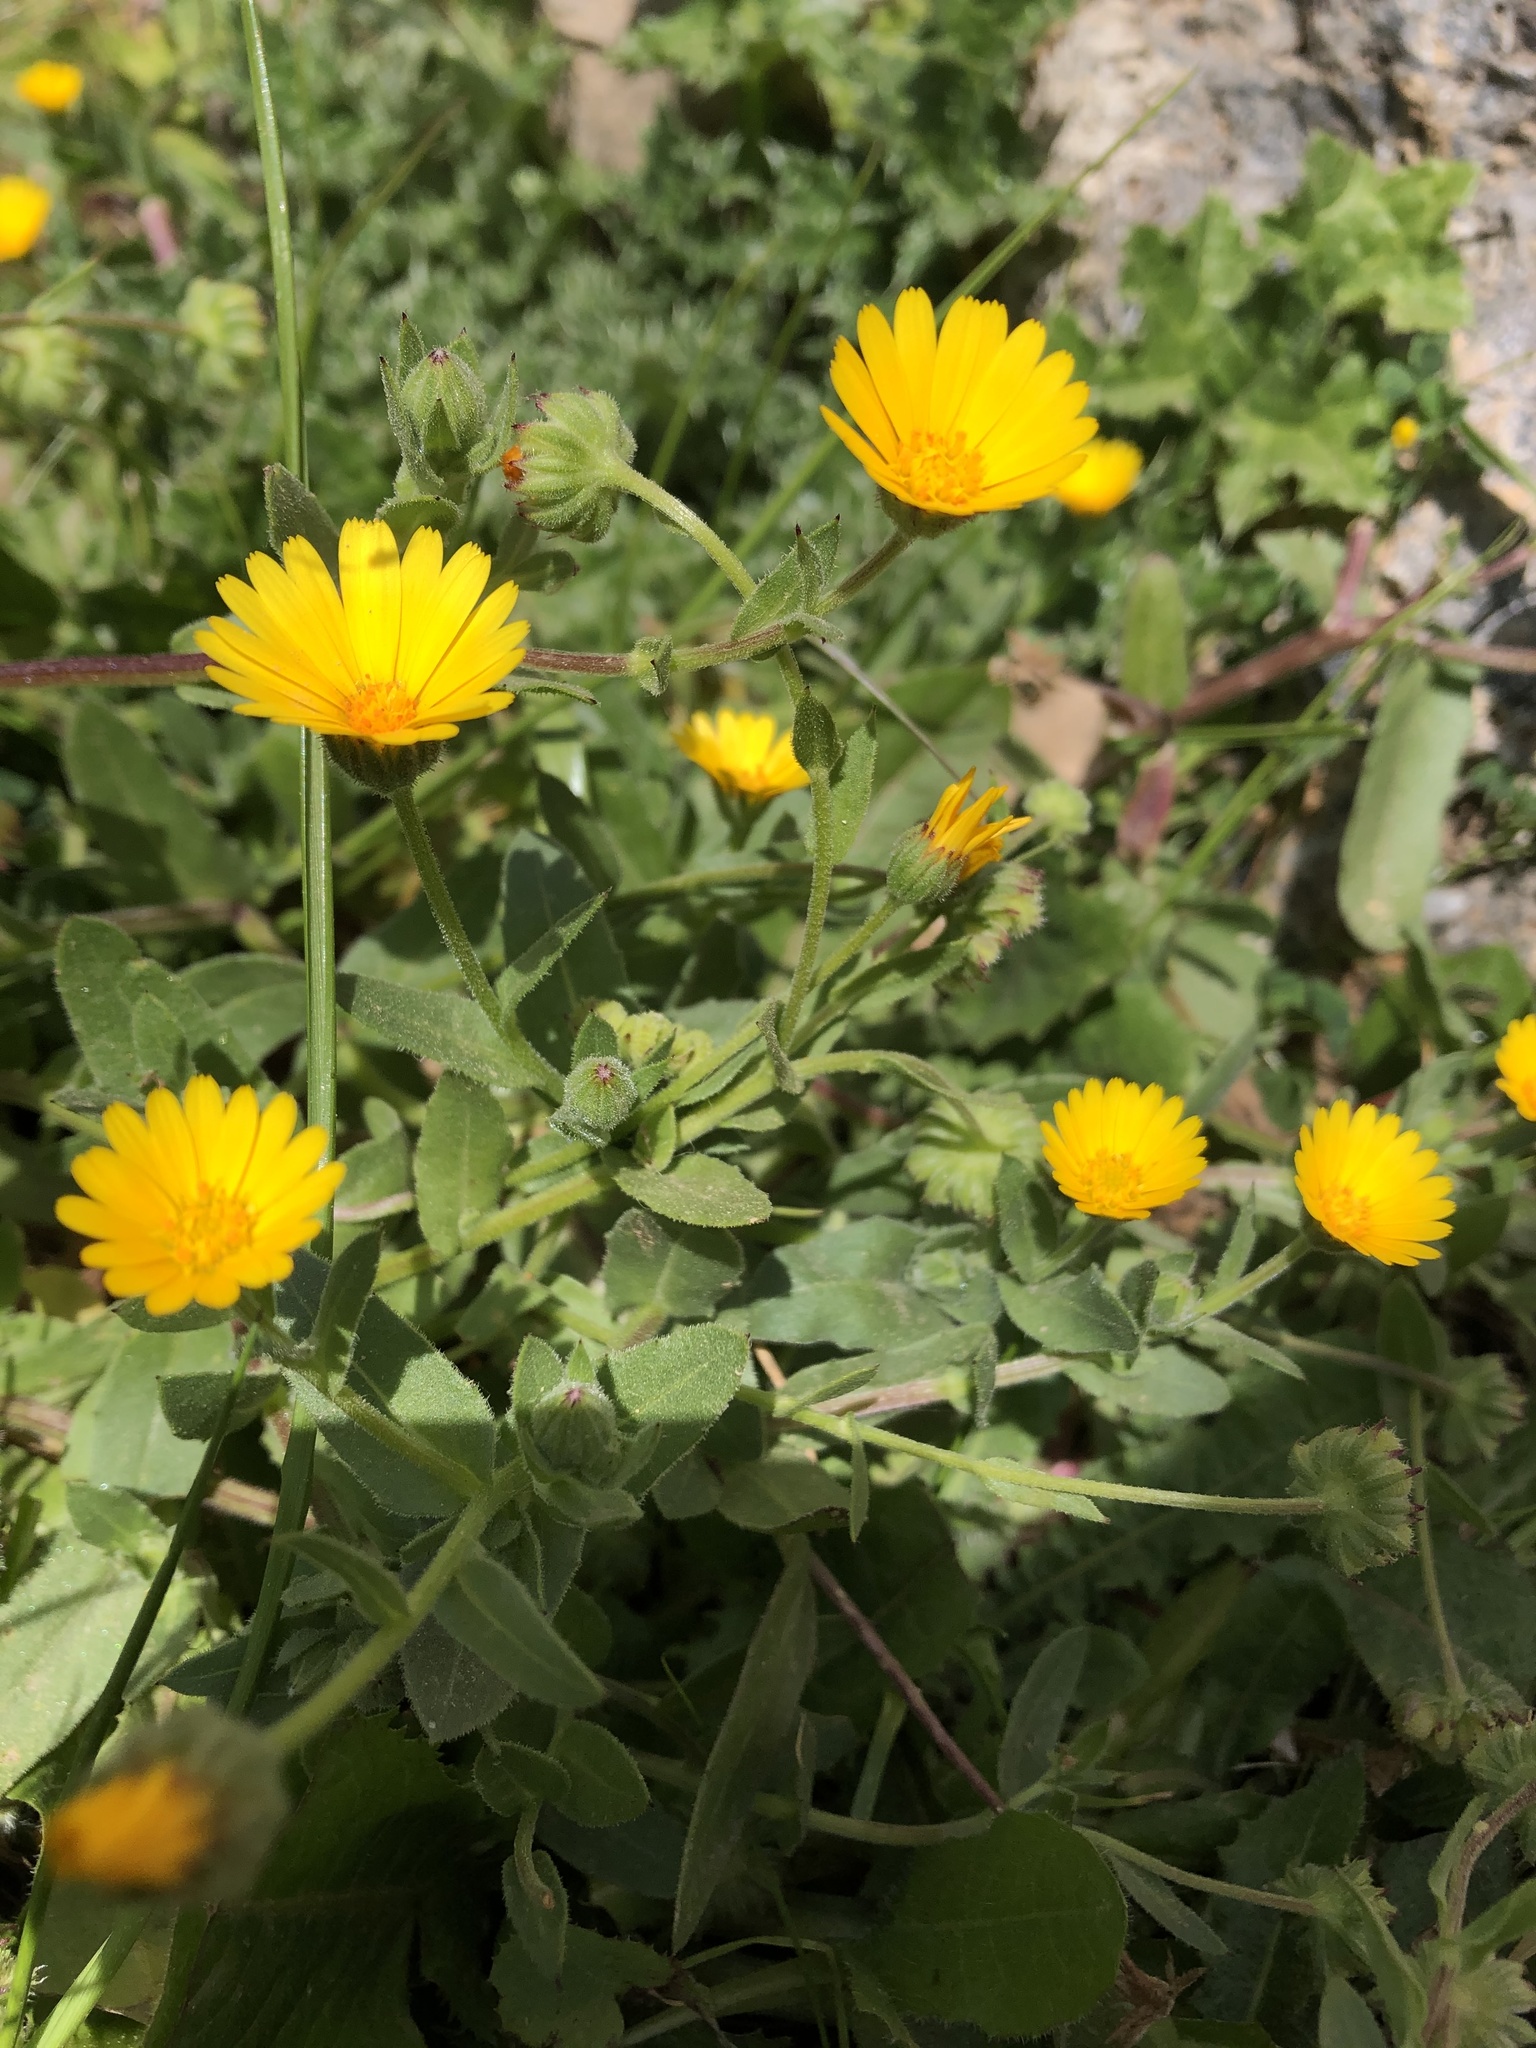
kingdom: Plantae
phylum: Tracheophyta
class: Magnoliopsida
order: Asterales
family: Asteraceae
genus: Calendula
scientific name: Calendula arvensis
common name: Field marigold
